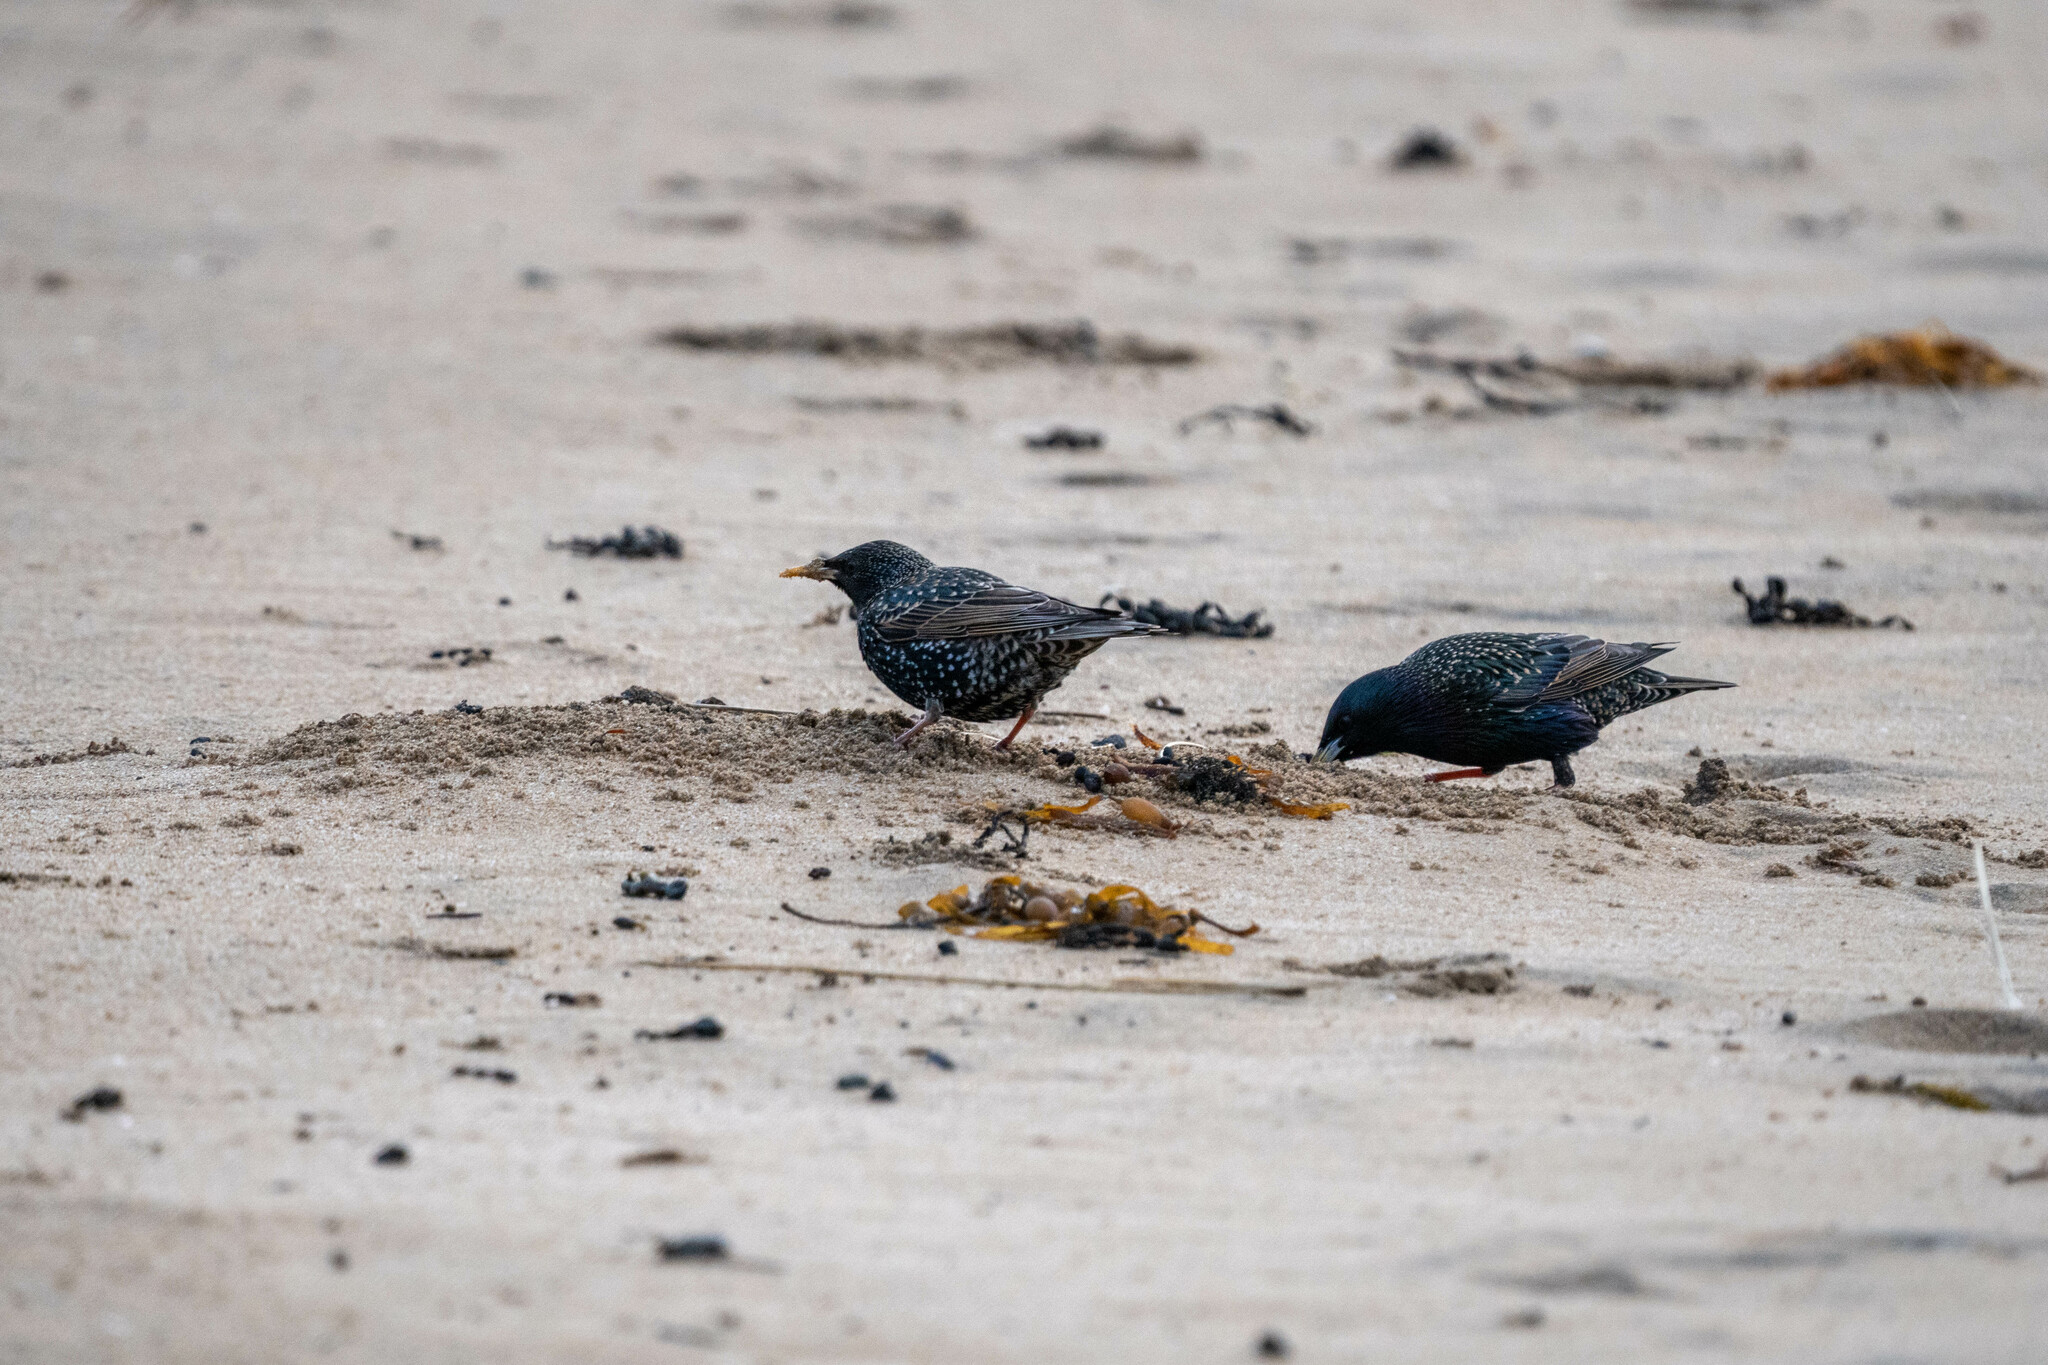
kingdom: Animalia
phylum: Chordata
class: Aves
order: Passeriformes
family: Sturnidae
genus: Sturnus
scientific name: Sturnus vulgaris
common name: Common starling
